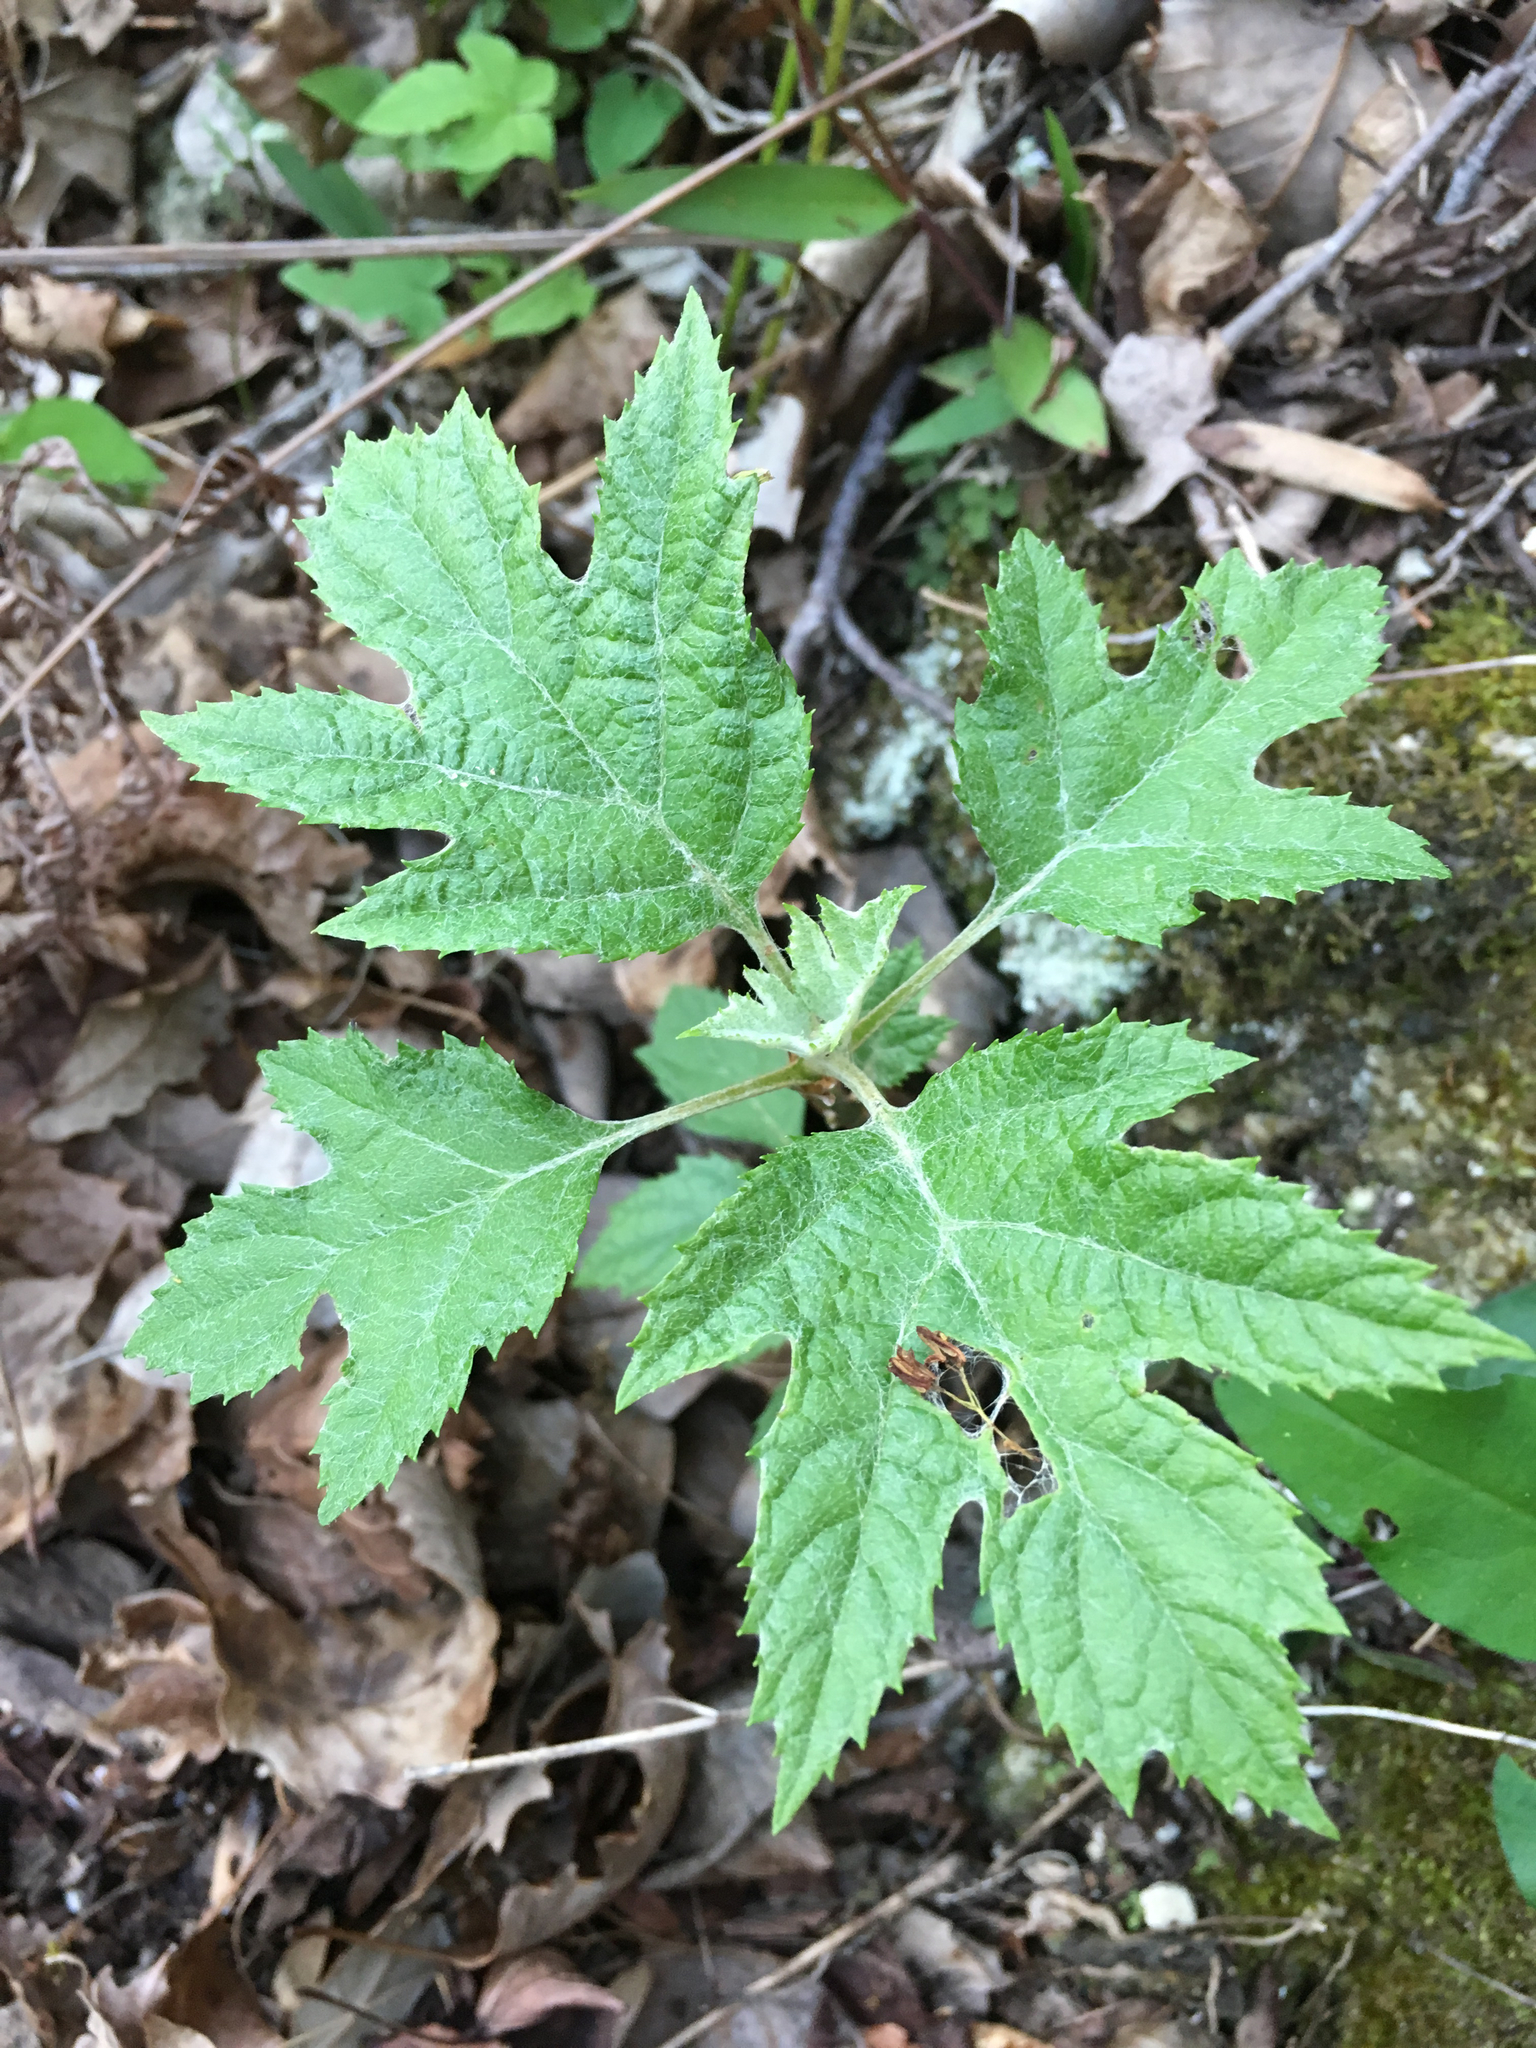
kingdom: Plantae
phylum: Tracheophyta
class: Magnoliopsida
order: Cornales
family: Hydrangeaceae
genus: Hydrangea
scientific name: Hydrangea quercifolia
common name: Oak-leaf hydrangea
